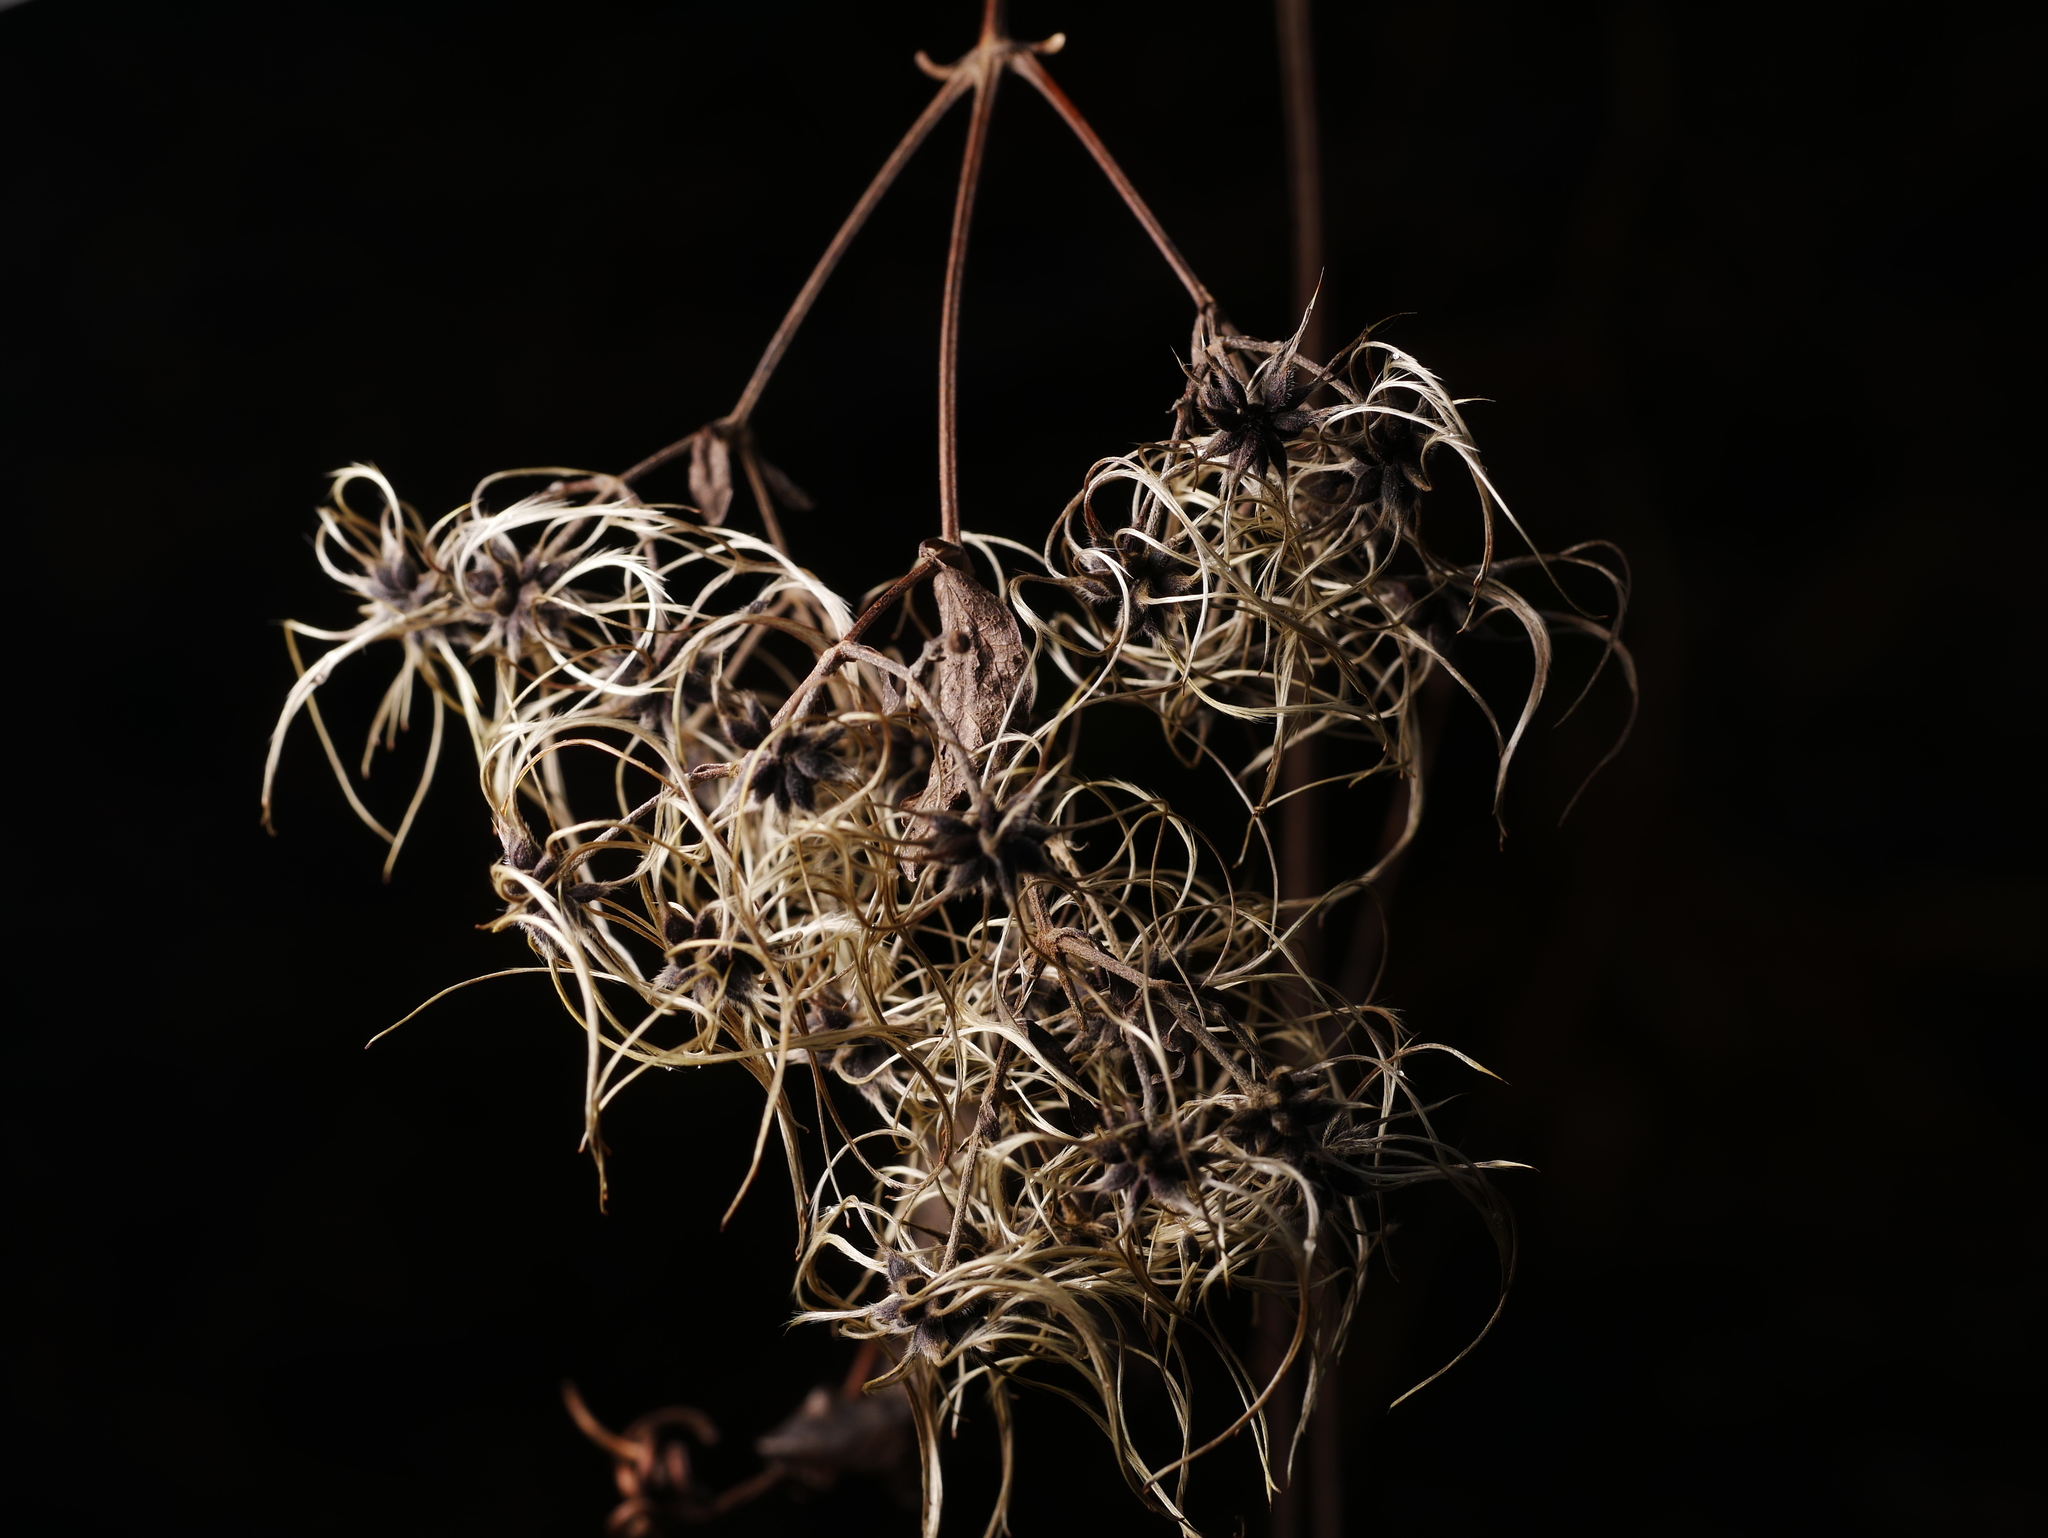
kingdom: Plantae
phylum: Tracheophyta
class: Magnoliopsida
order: Ranunculales
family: Ranunculaceae
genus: Clematis
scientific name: Clematis vitalba
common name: Evergreen clematis
